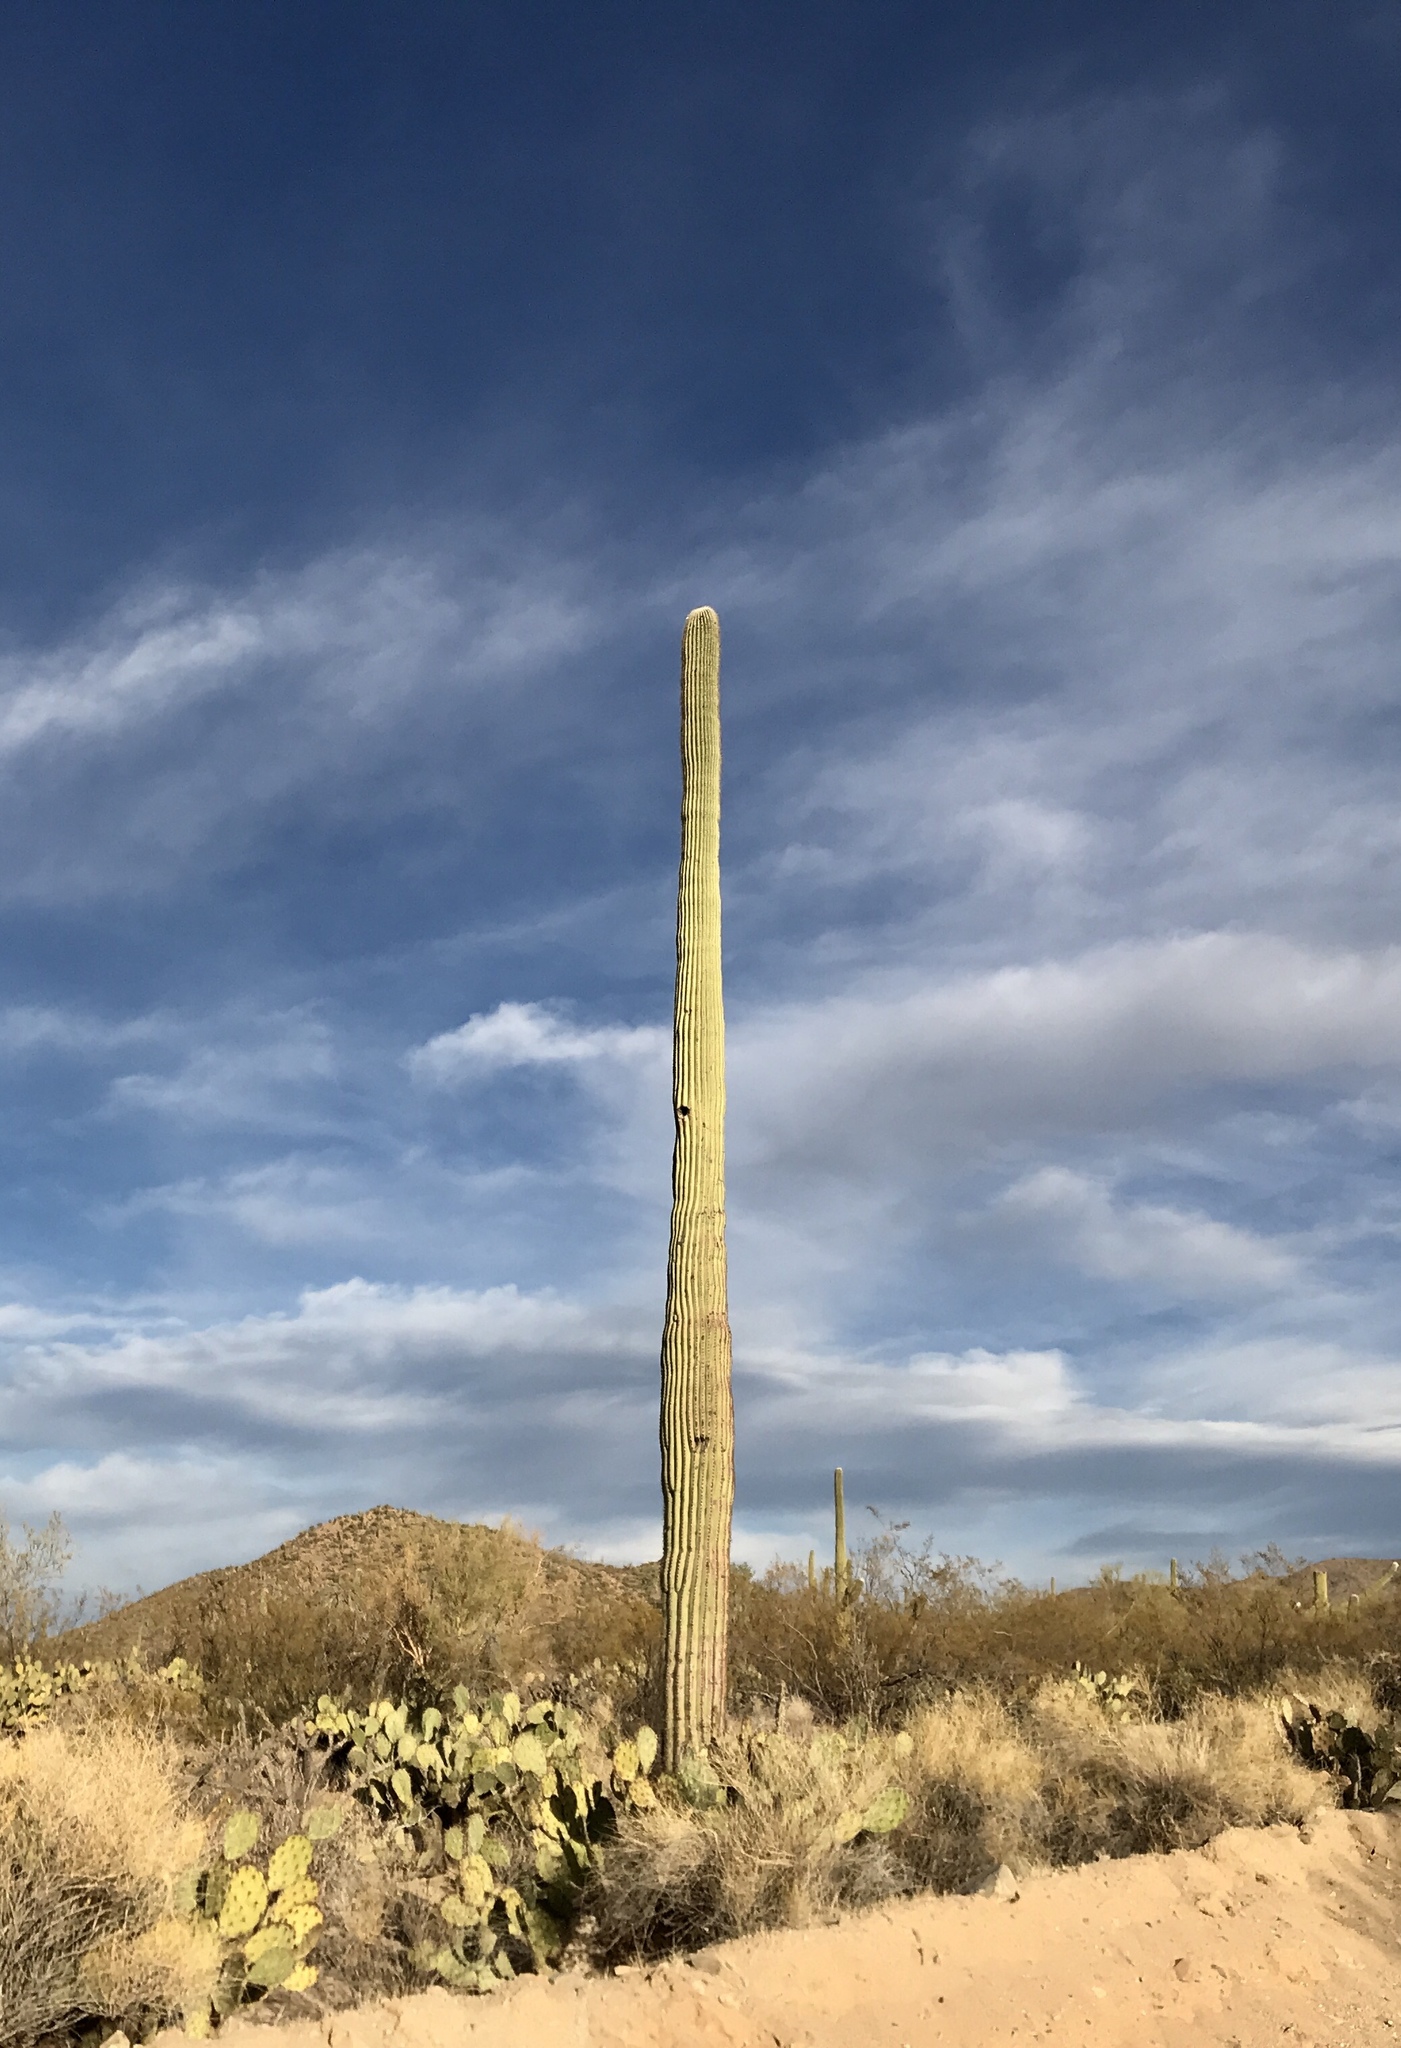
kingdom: Plantae
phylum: Tracheophyta
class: Magnoliopsida
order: Caryophyllales
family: Cactaceae
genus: Carnegiea
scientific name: Carnegiea gigantea
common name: Saguaro
